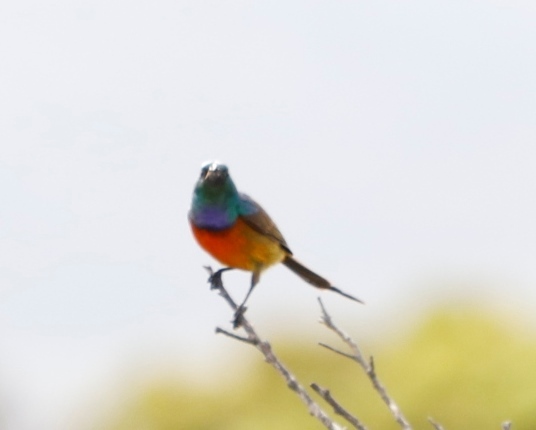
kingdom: Animalia
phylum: Chordata
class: Aves
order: Passeriformes
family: Nectariniidae
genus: Anthobaphes
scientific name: Anthobaphes violacea
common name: Orange-breasted sunbird
